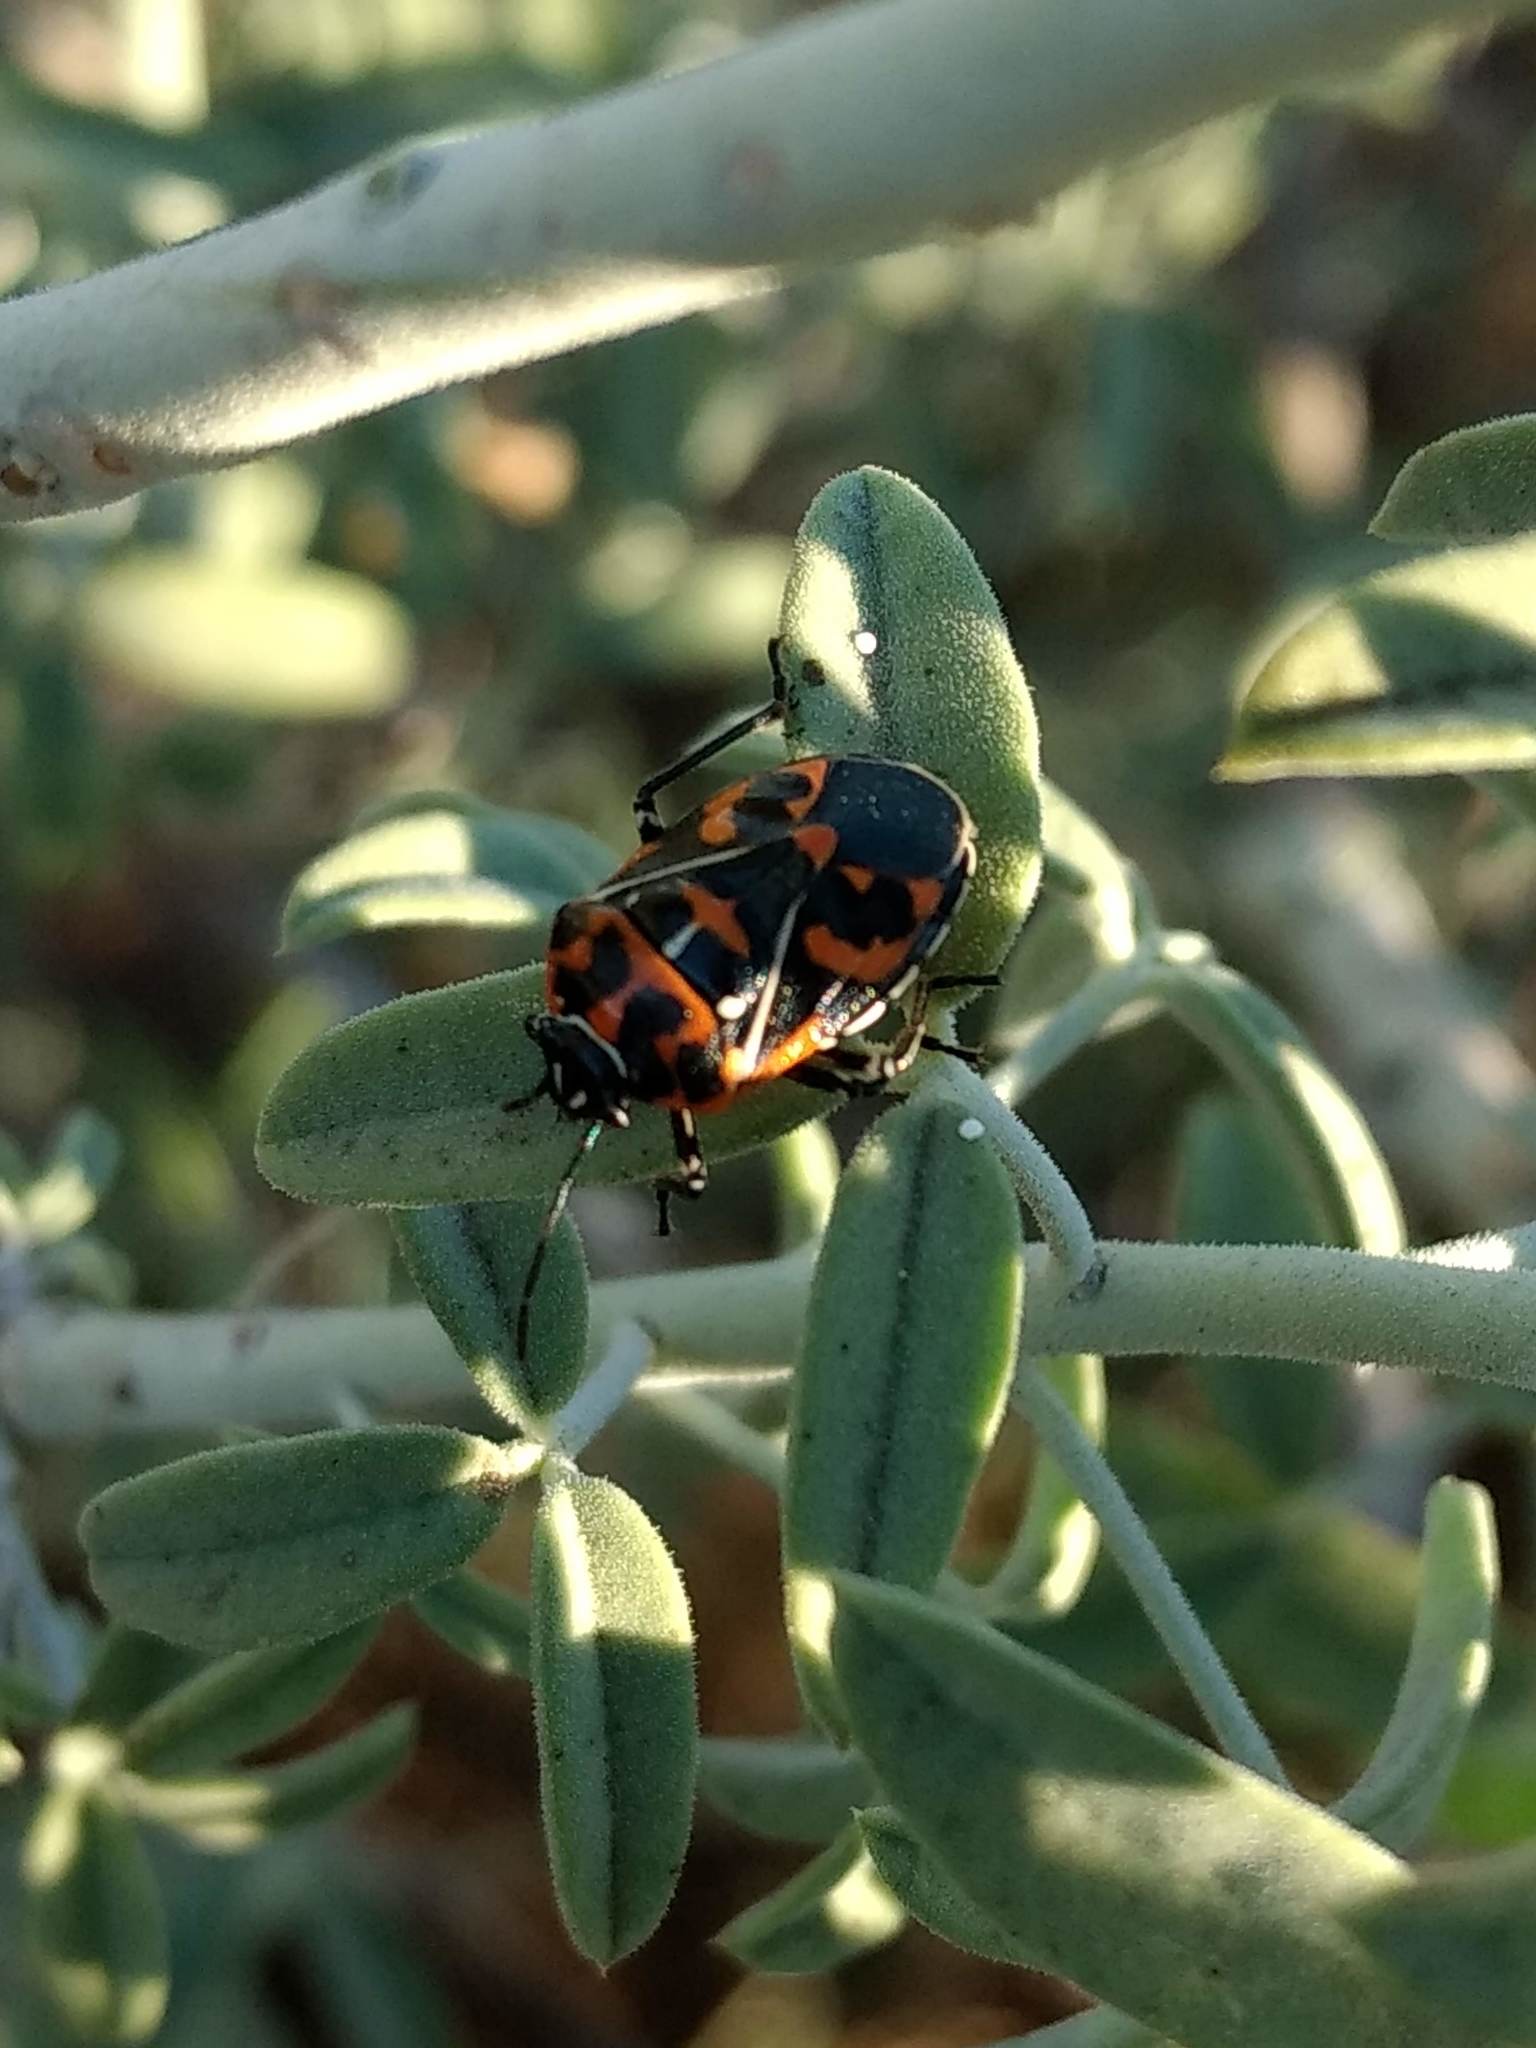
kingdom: Animalia
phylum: Arthropoda
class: Insecta
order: Hemiptera
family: Pentatomidae
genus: Murgantia
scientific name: Murgantia histrionica
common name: Harlequin bug
